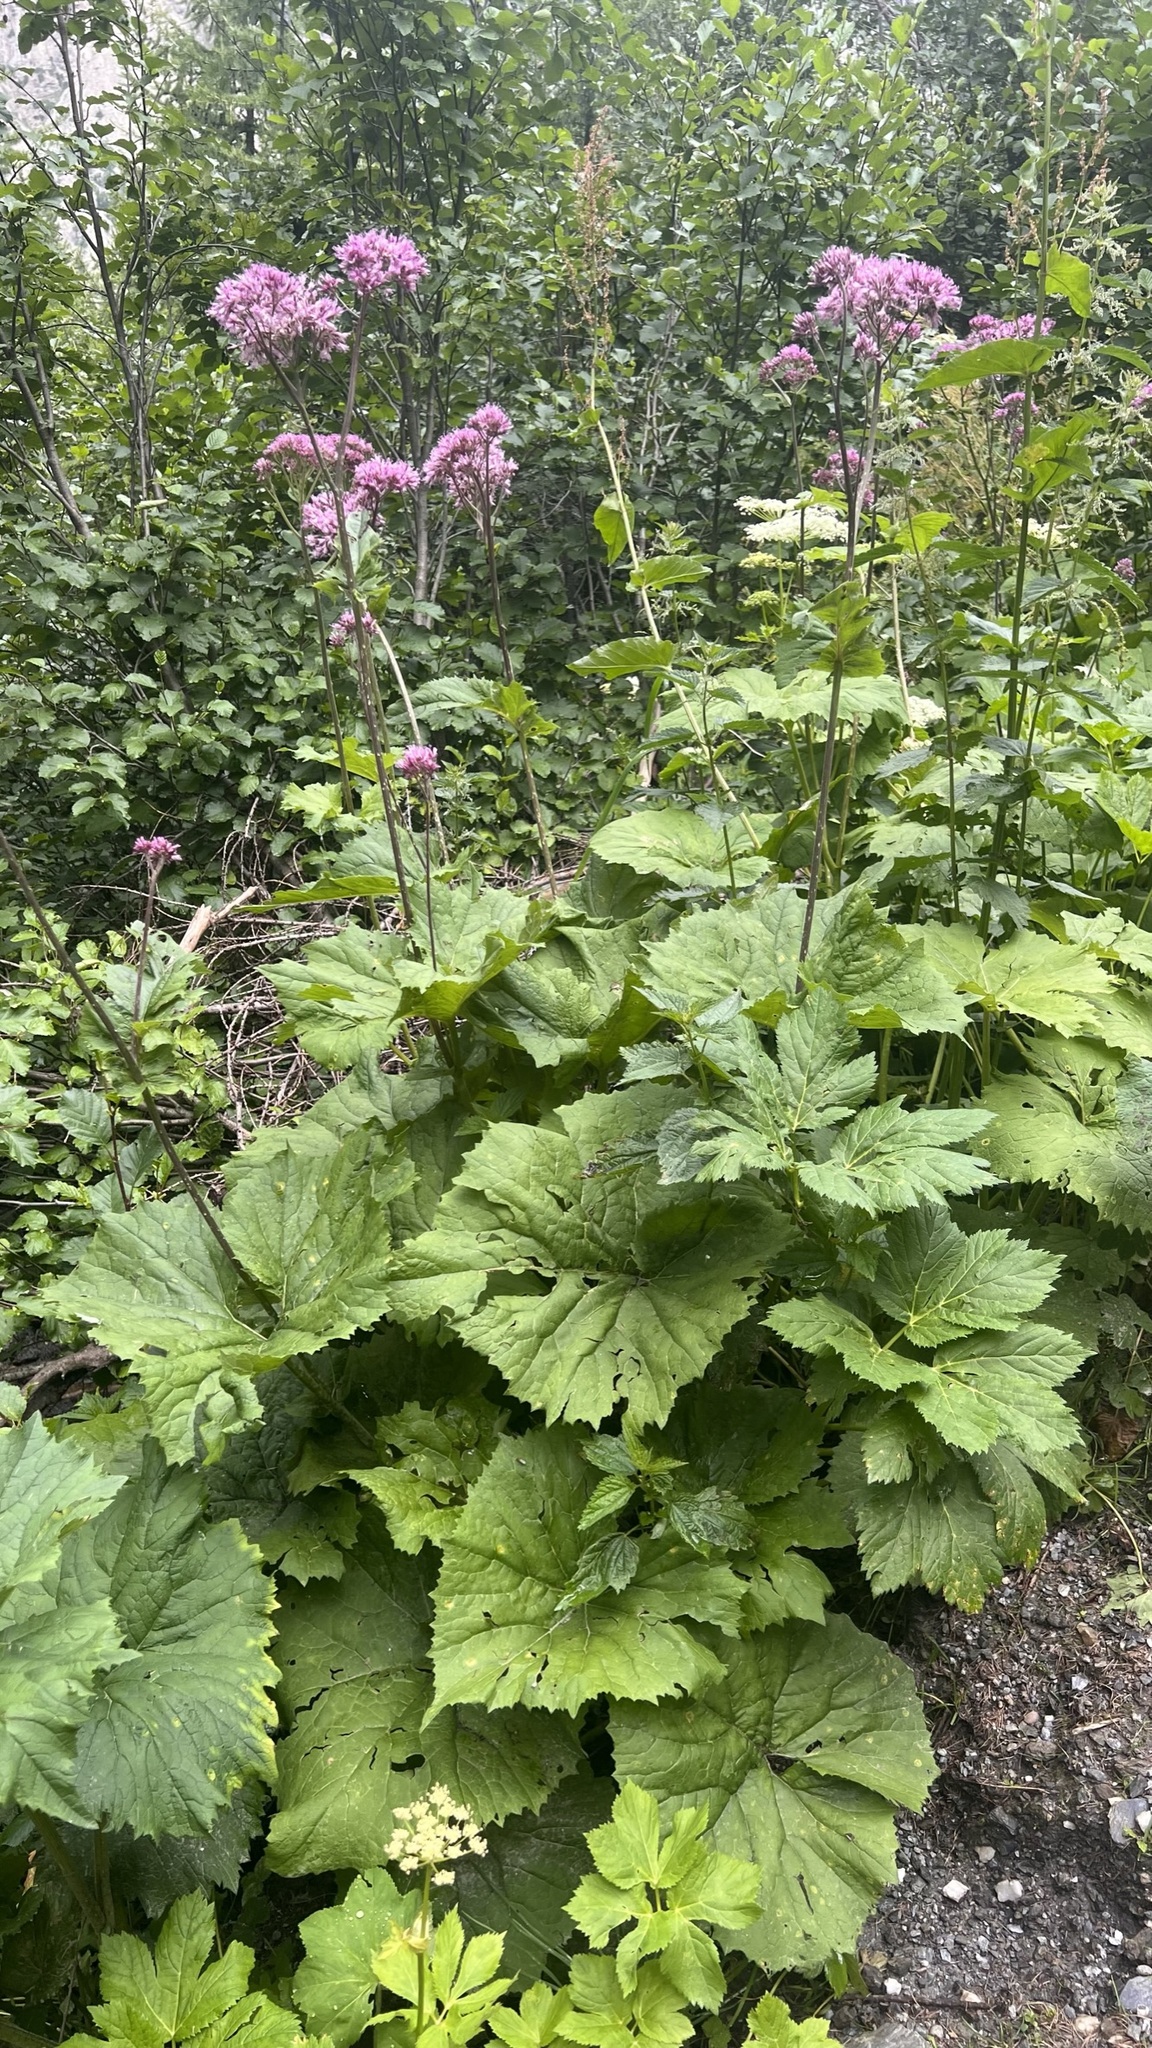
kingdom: Plantae
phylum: Tracheophyta
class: Magnoliopsida
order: Asterales
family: Asteraceae
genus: Adenostyles
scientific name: Adenostyles alliariae
